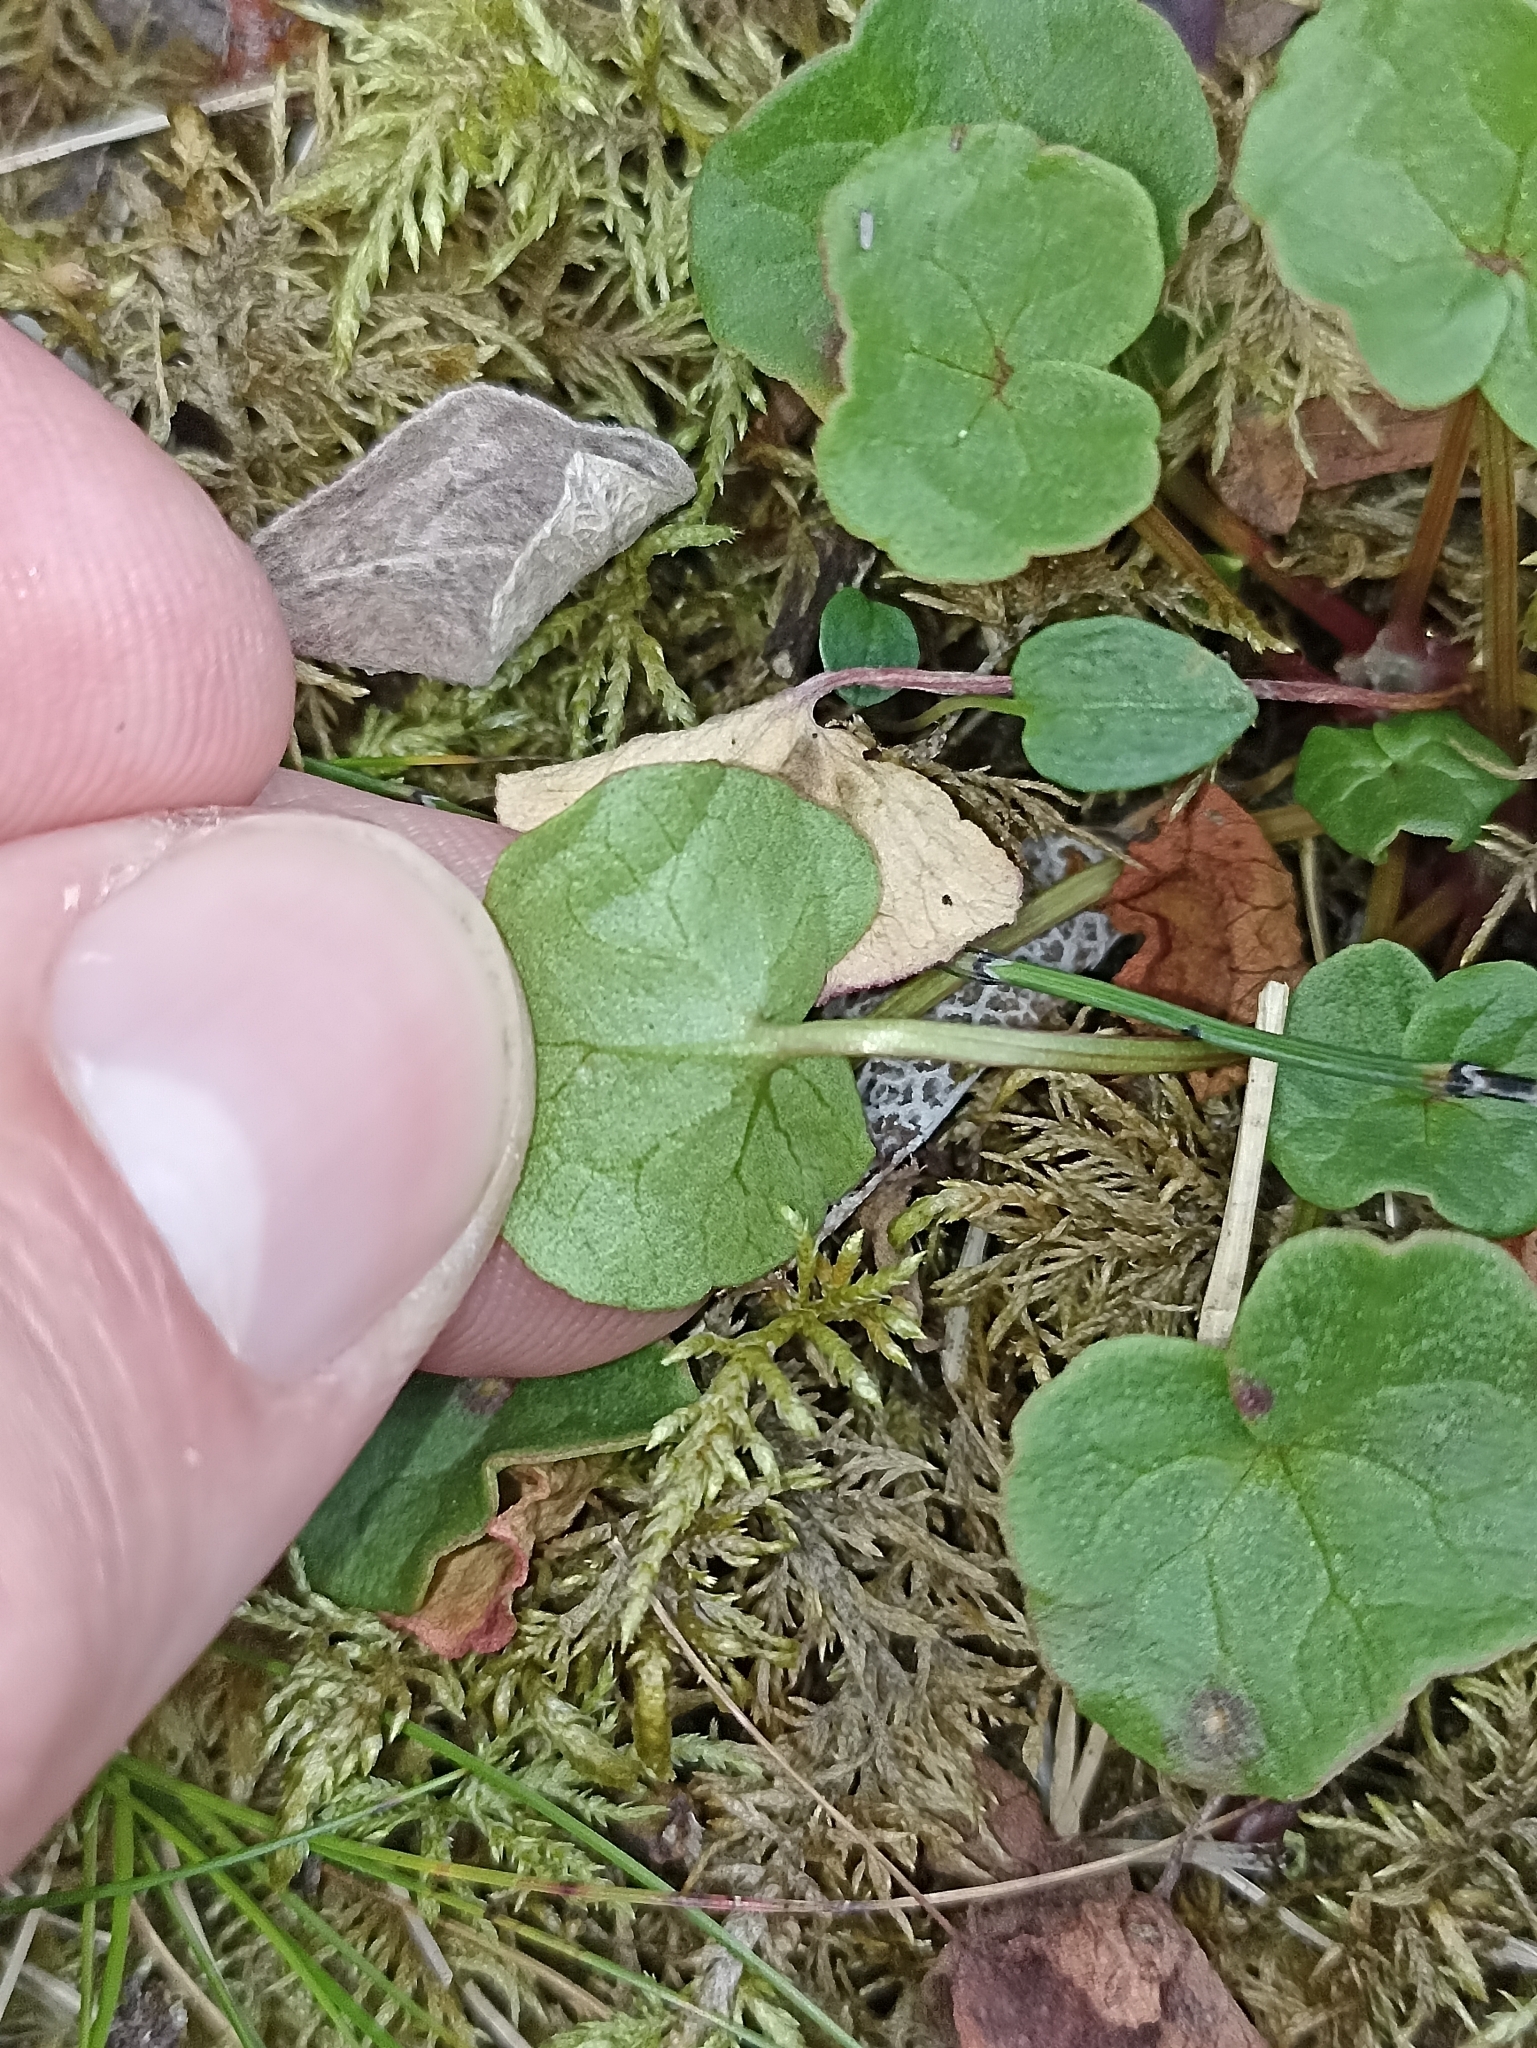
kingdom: Plantae
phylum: Tracheophyta
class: Magnoliopsida
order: Caryophyllales
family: Polygonaceae
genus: Oxyria
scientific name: Oxyria digyna
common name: Alpine mountain-sorrel
